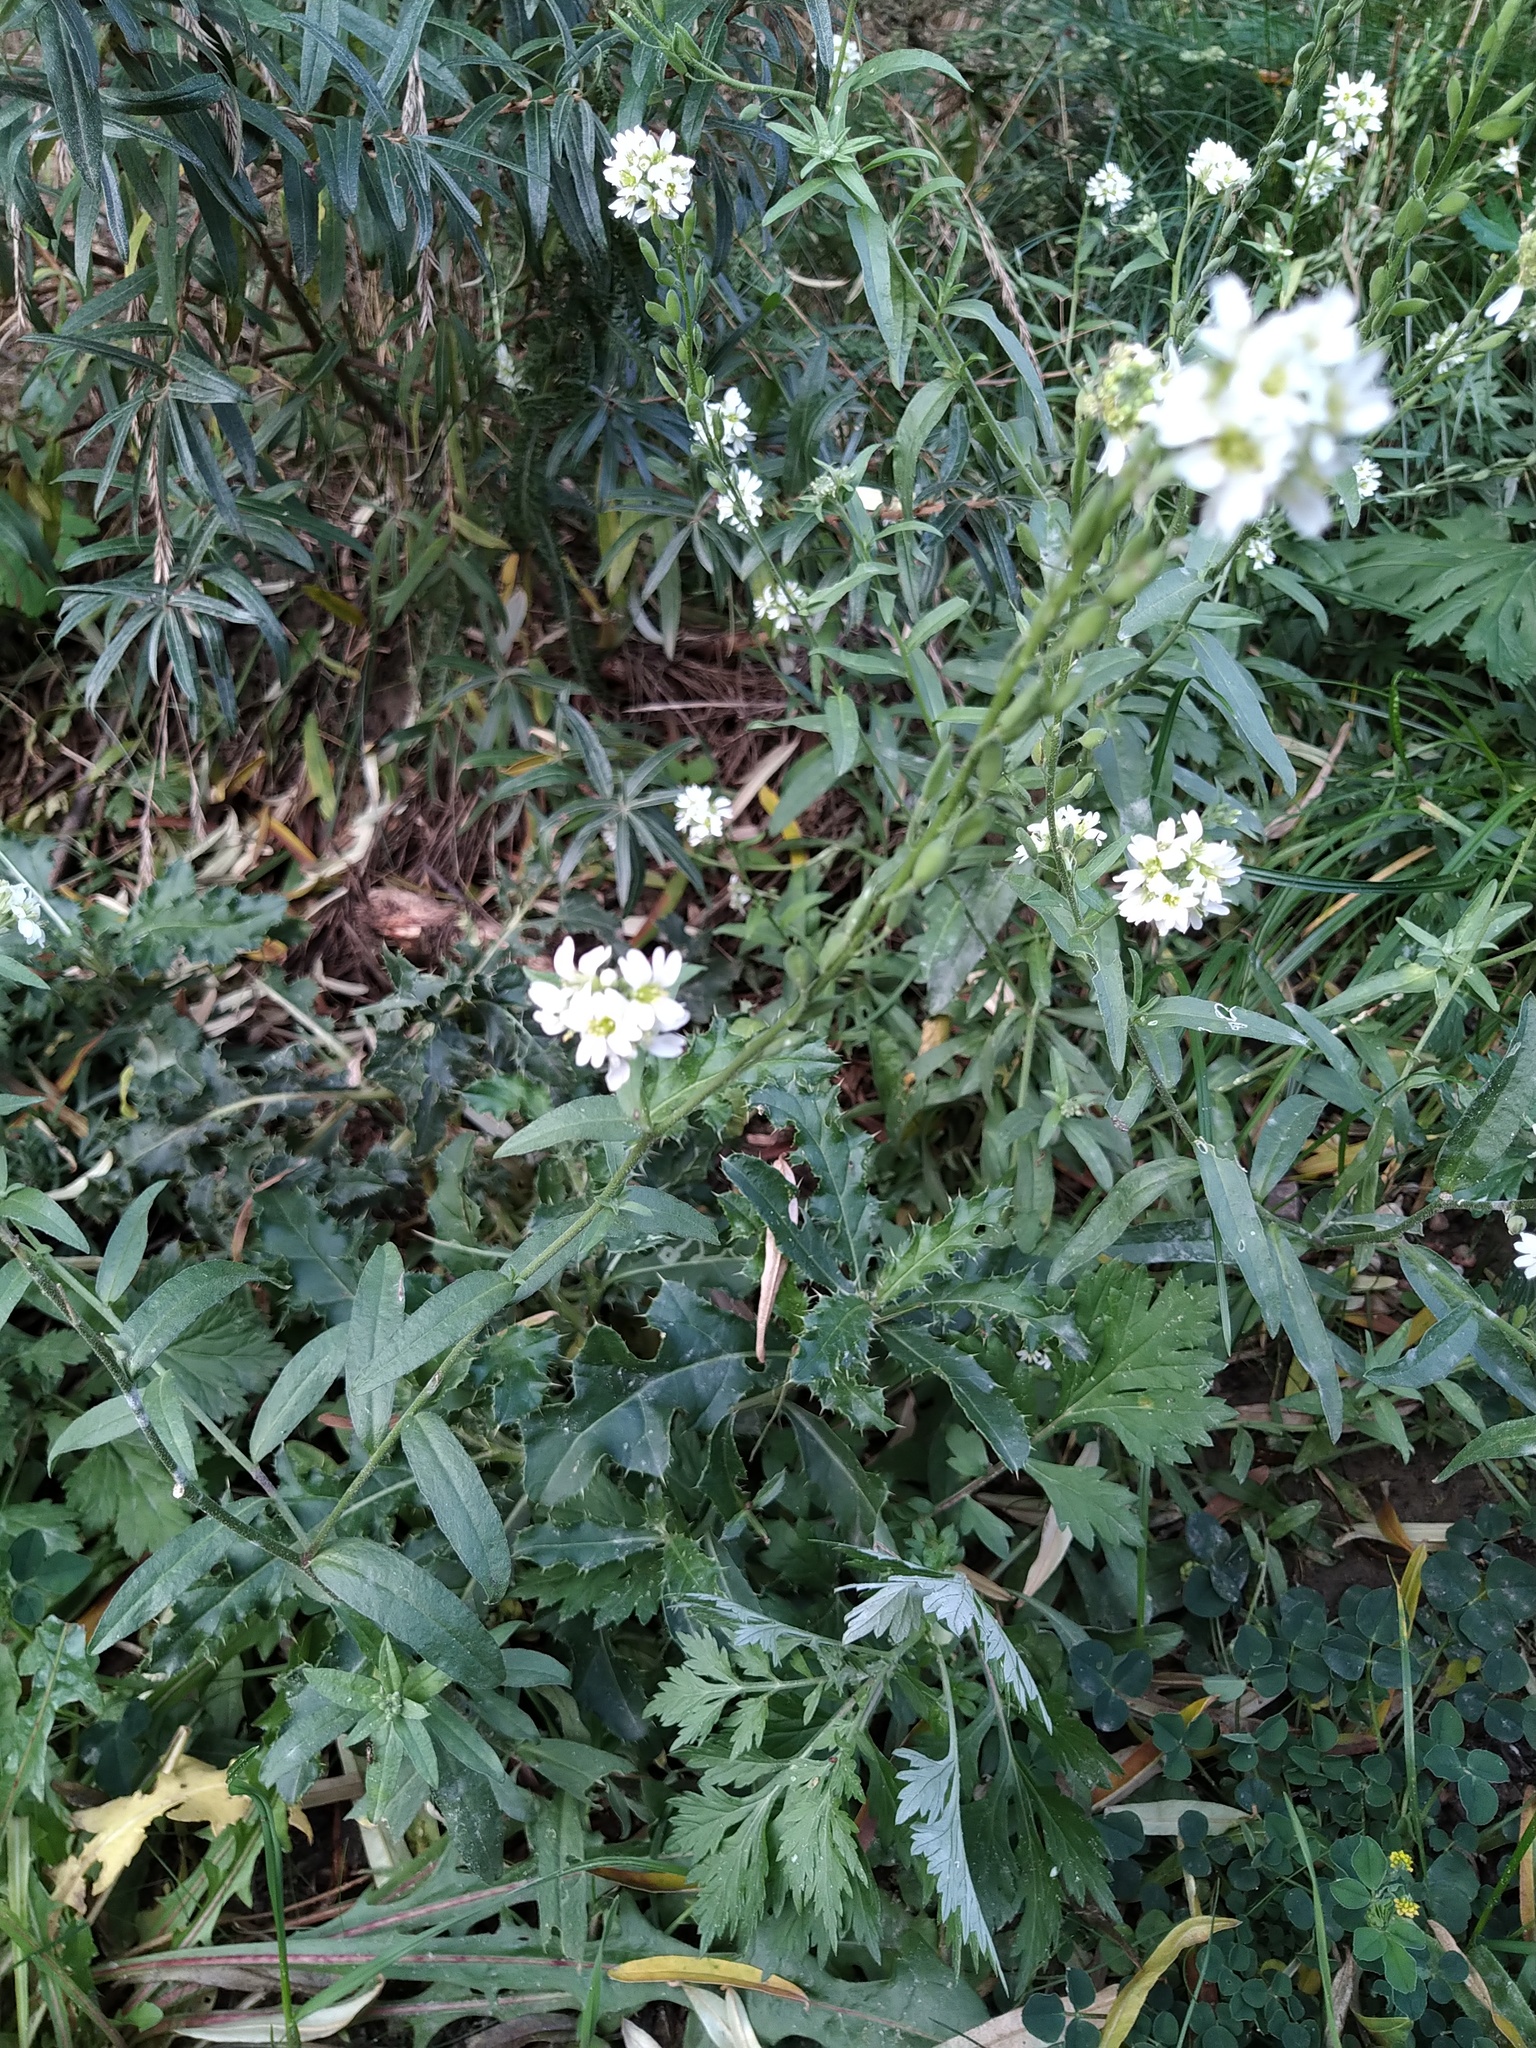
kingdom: Plantae
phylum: Tracheophyta
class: Magnoliopsida
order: Brassicales
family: Brassicaceae
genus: Berteroa
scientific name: Berteroa incana
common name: Hoary alison
